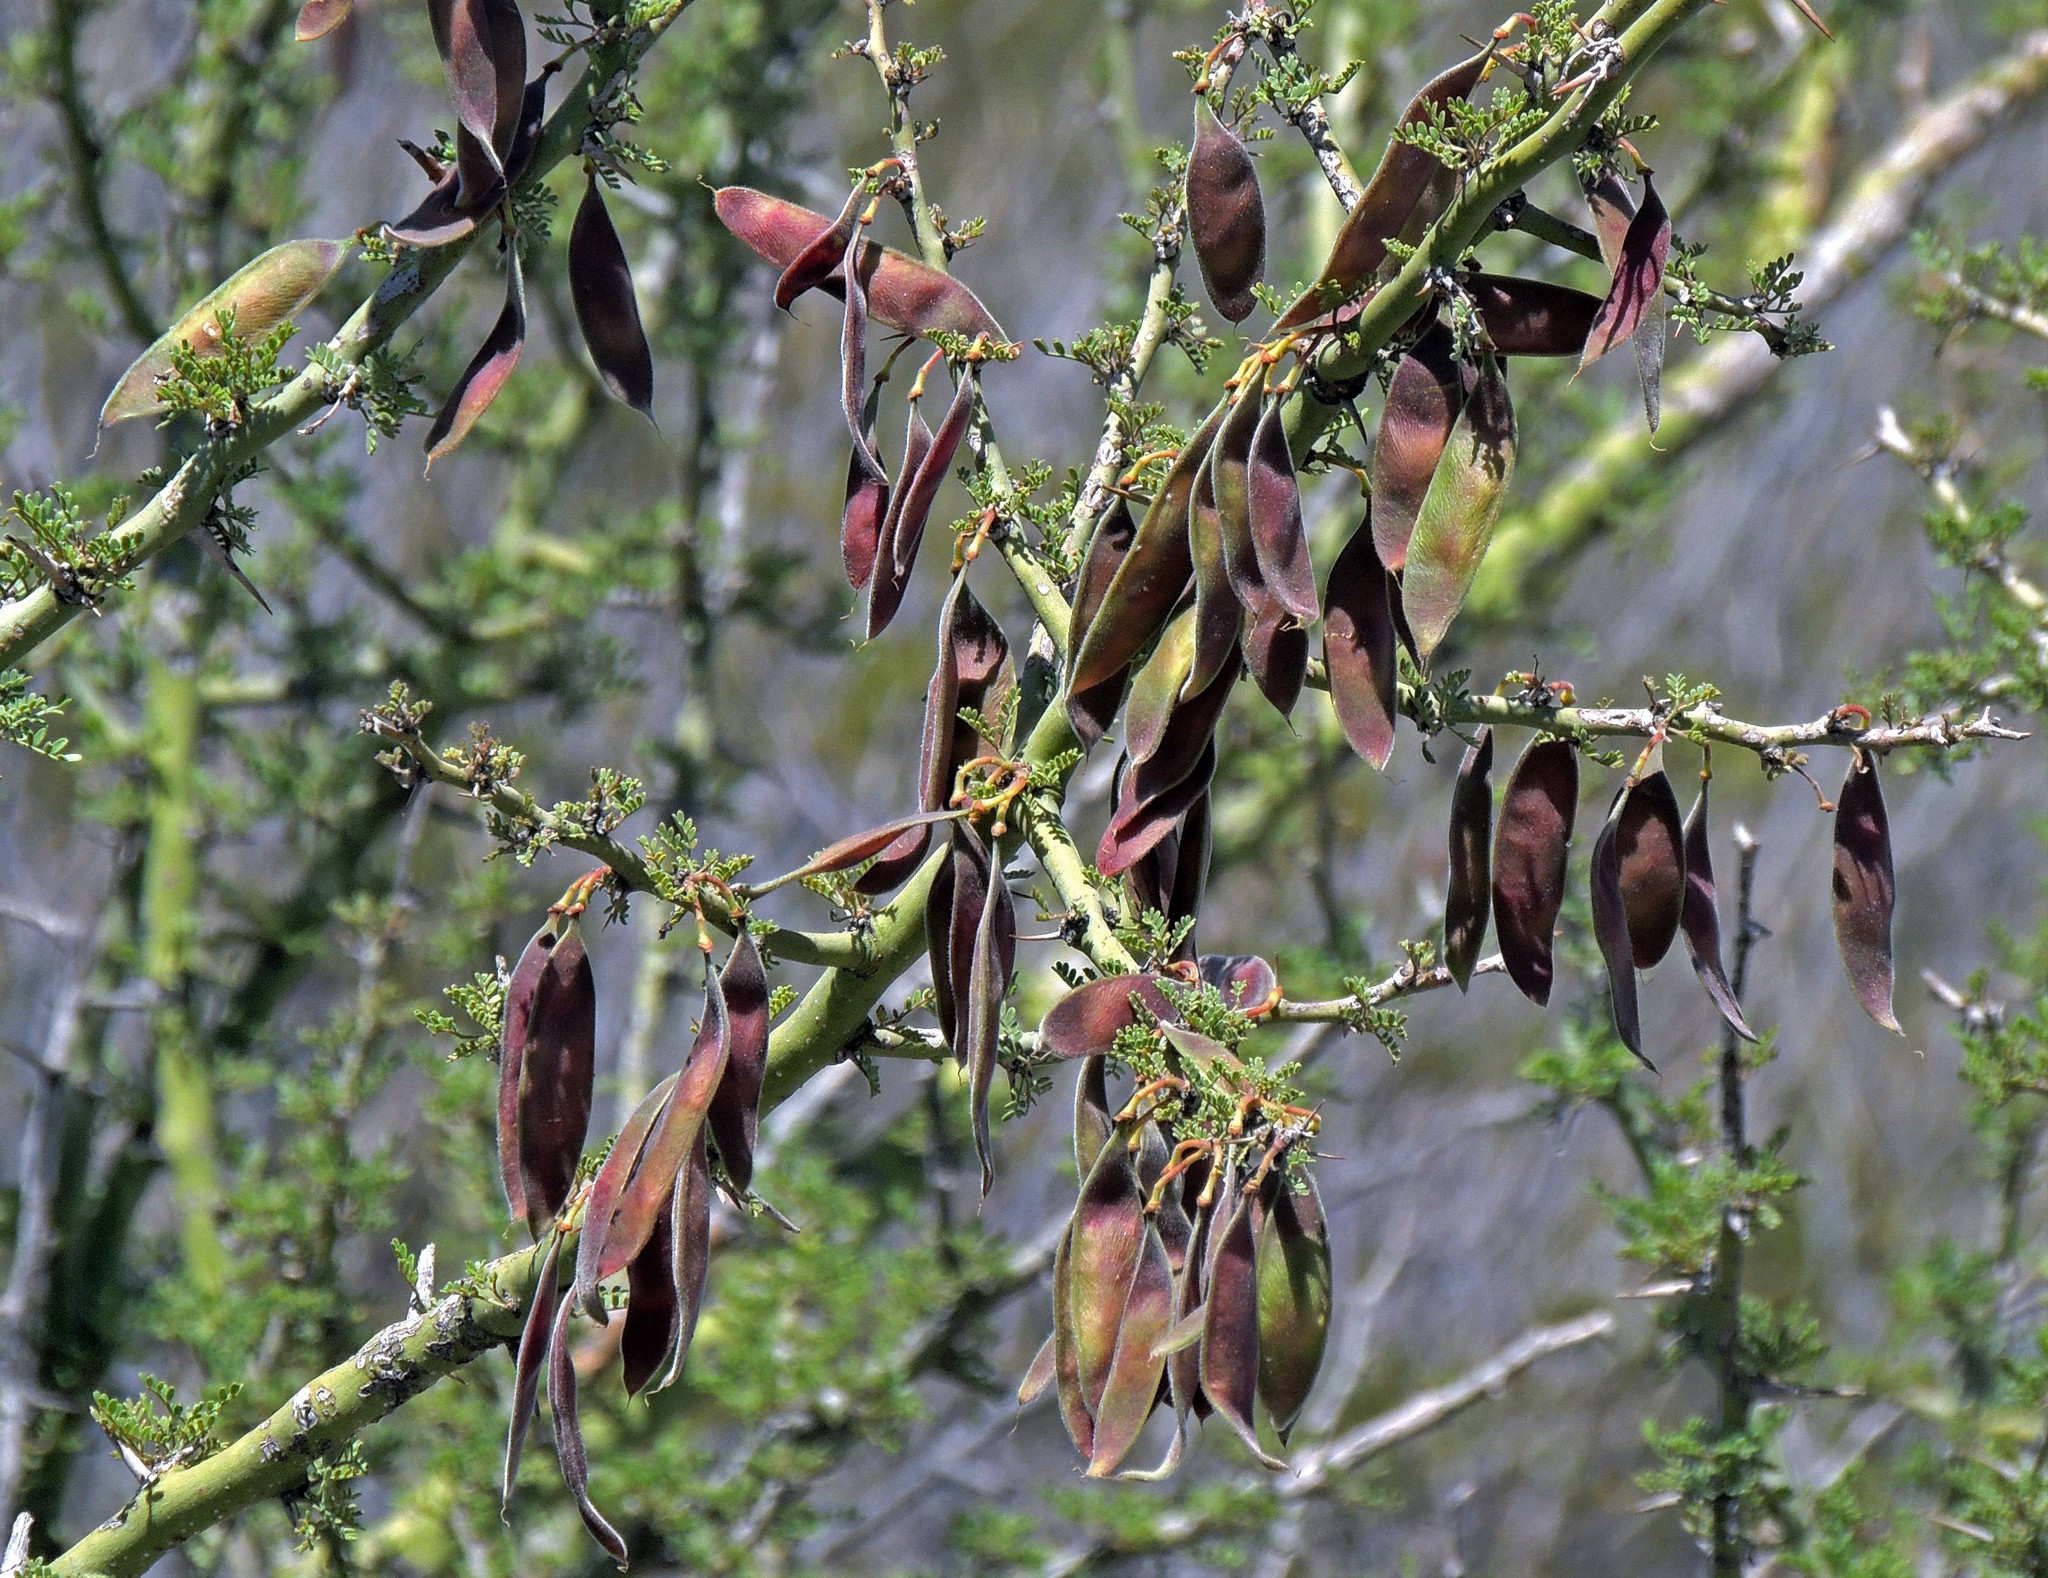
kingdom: Plantae
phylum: Tracheophyta
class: Magnoliopsida
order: Fabales
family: Fabaceae
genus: Parkinsonia
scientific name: Parkinsonia praecox
